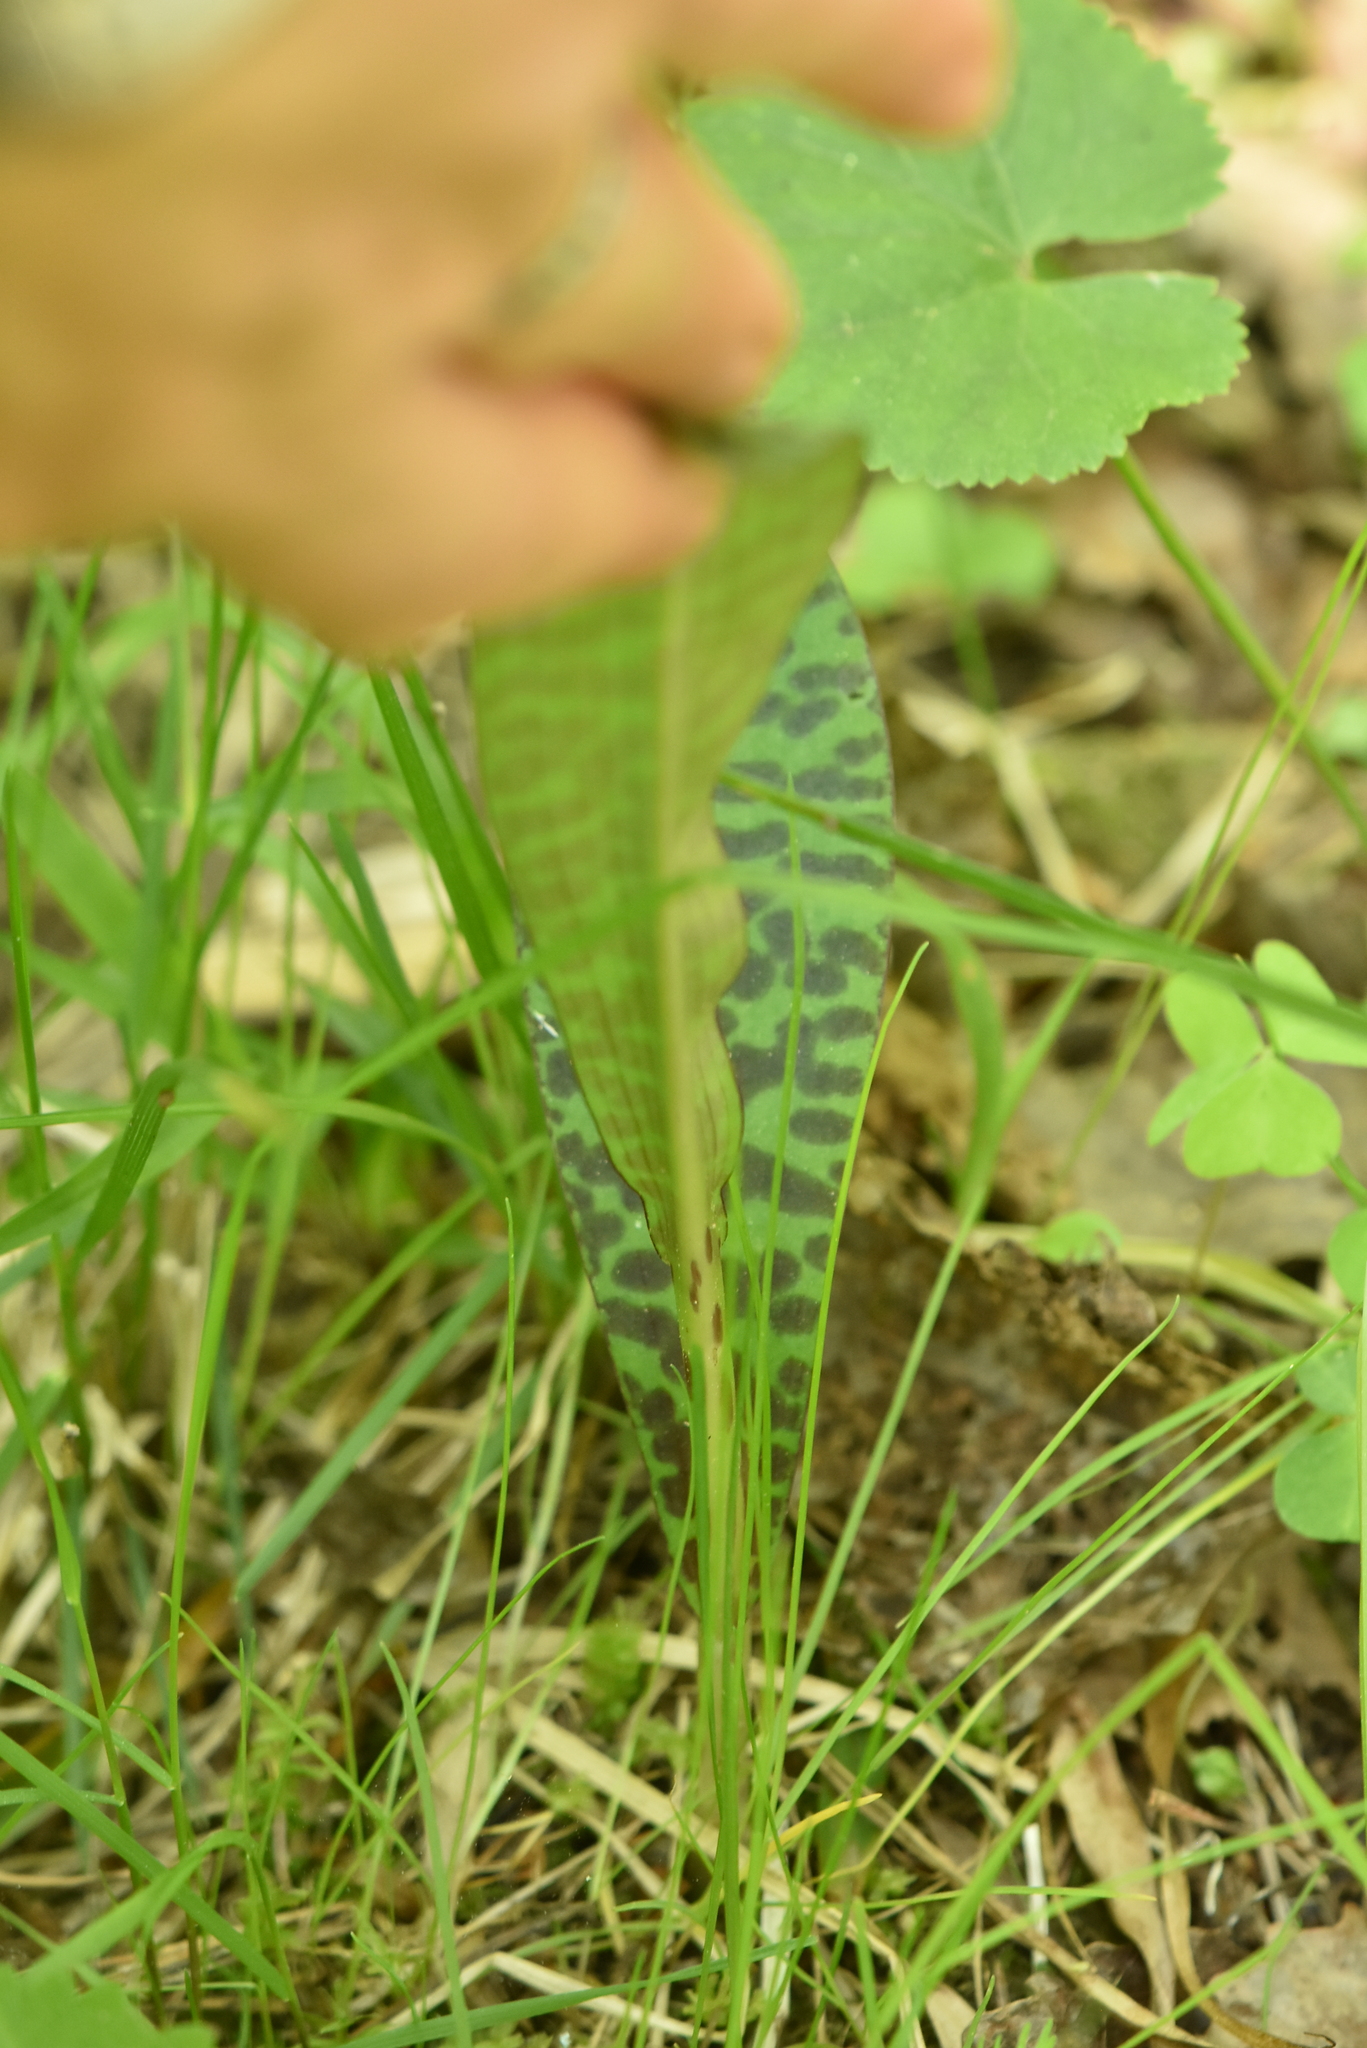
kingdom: Plantae
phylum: Tracheophyta
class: Liliopsida
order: Asparagales
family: Orchidaceae
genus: Dactylorhiza
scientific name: Dactylorhiza maculata
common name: Heath spotted-orchid
